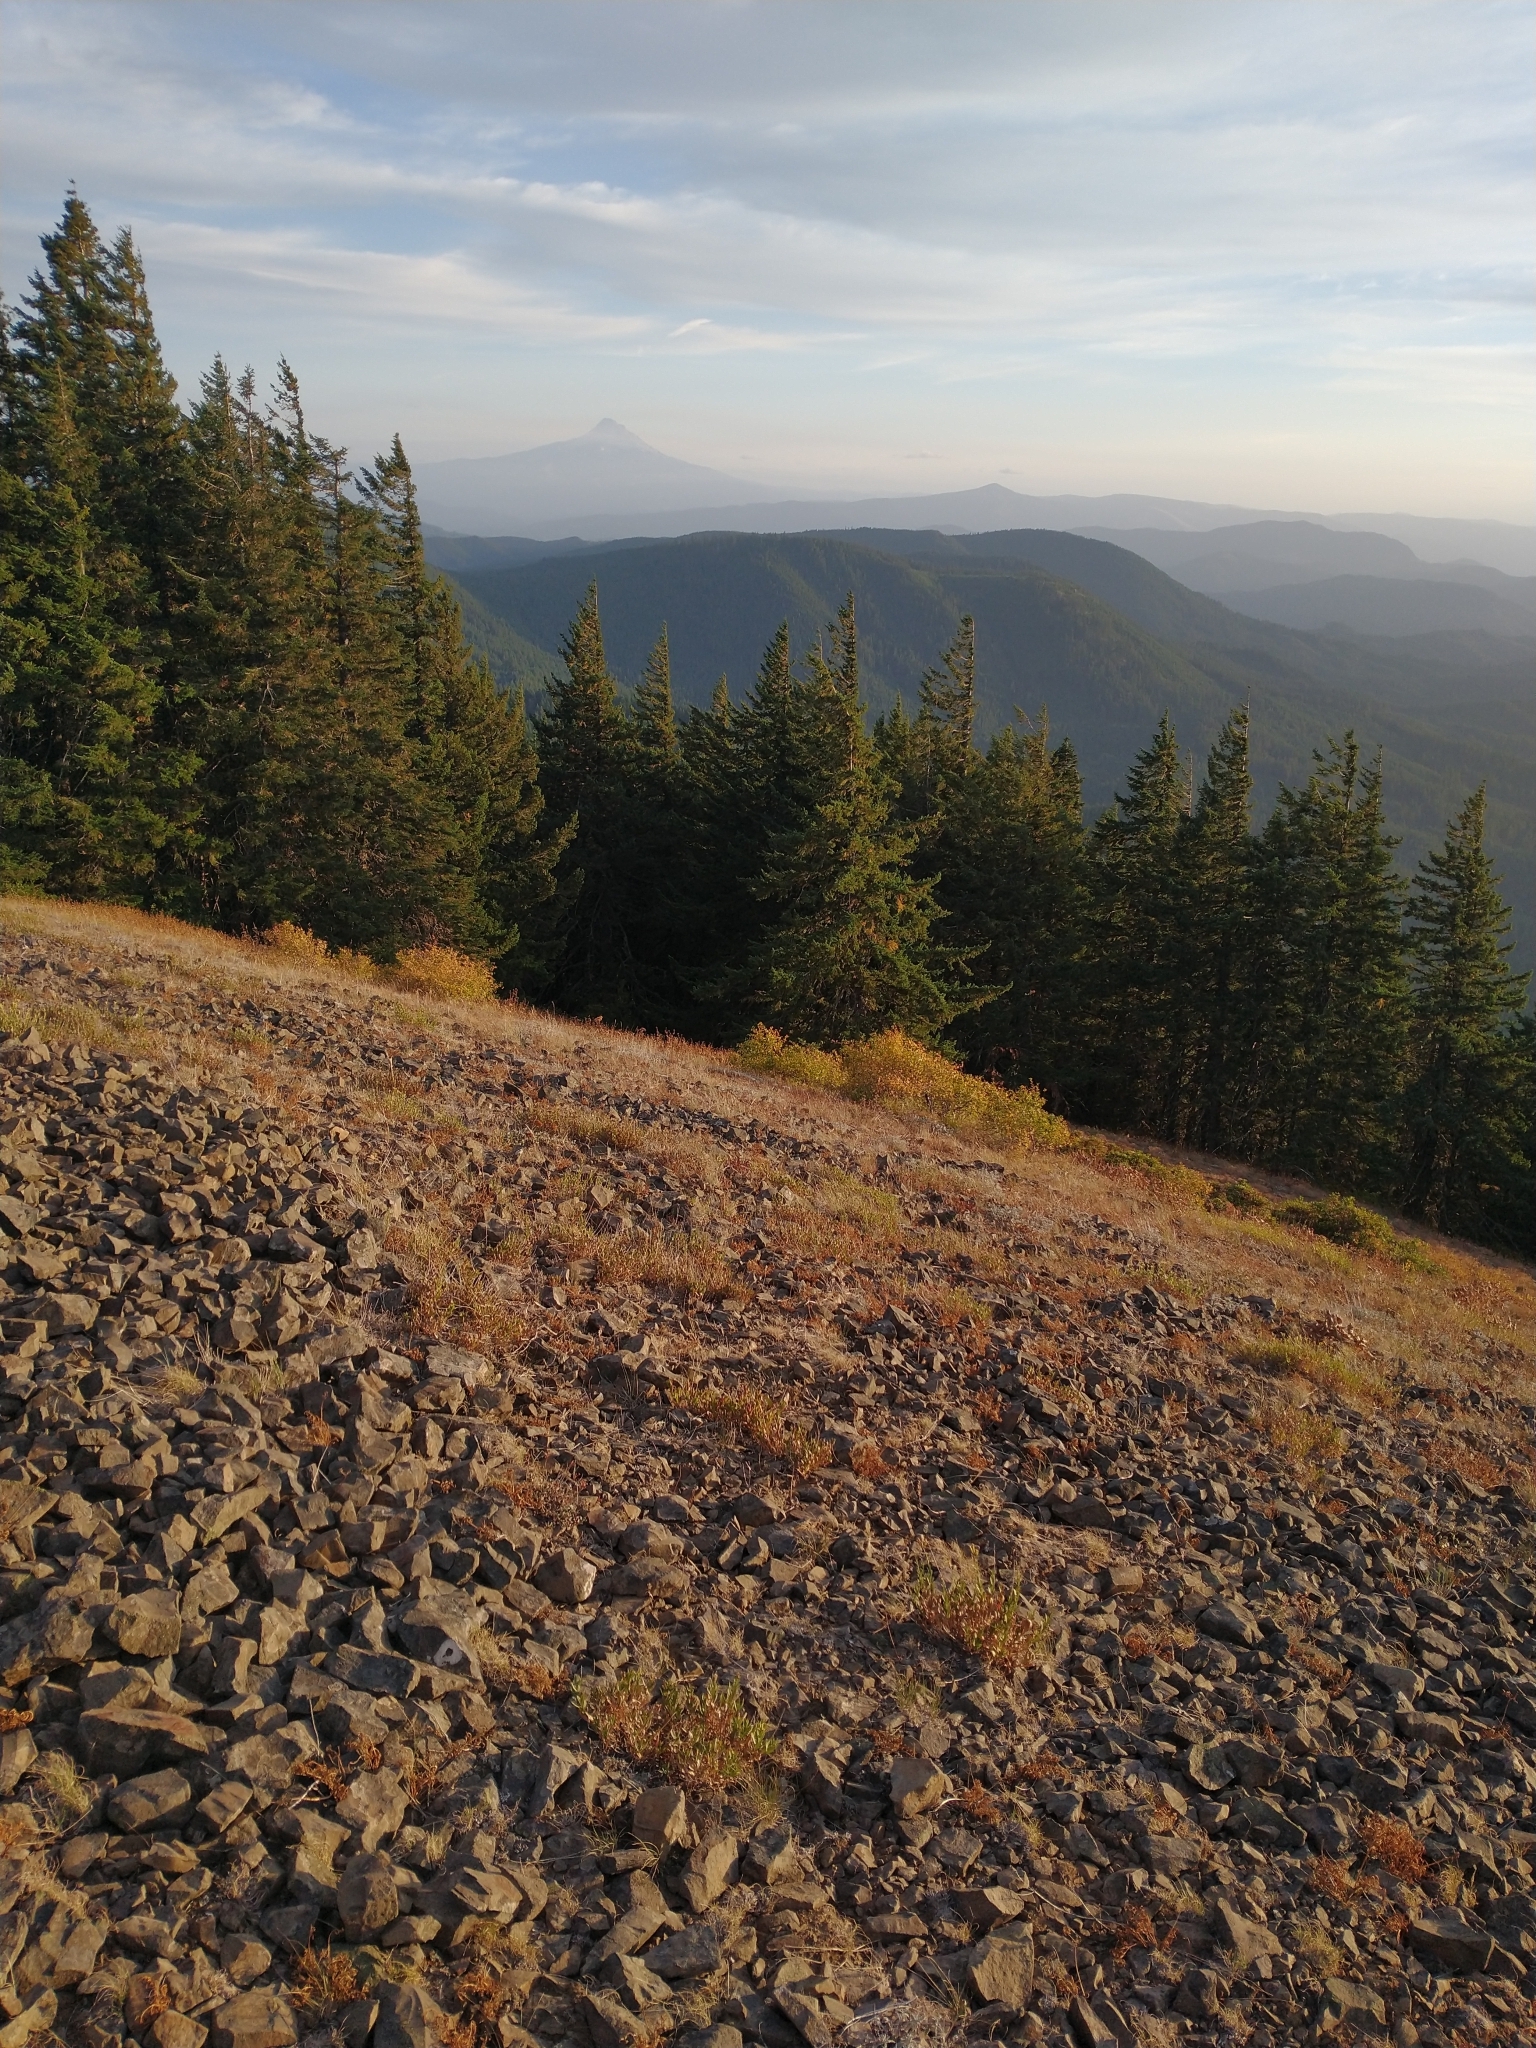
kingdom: Plantae
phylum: Tracheophyta
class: Pinopsida
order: Pinales
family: Pinaceae
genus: Pseudotsuga
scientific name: Pseudotsuga menziesii
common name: Douglas fir
